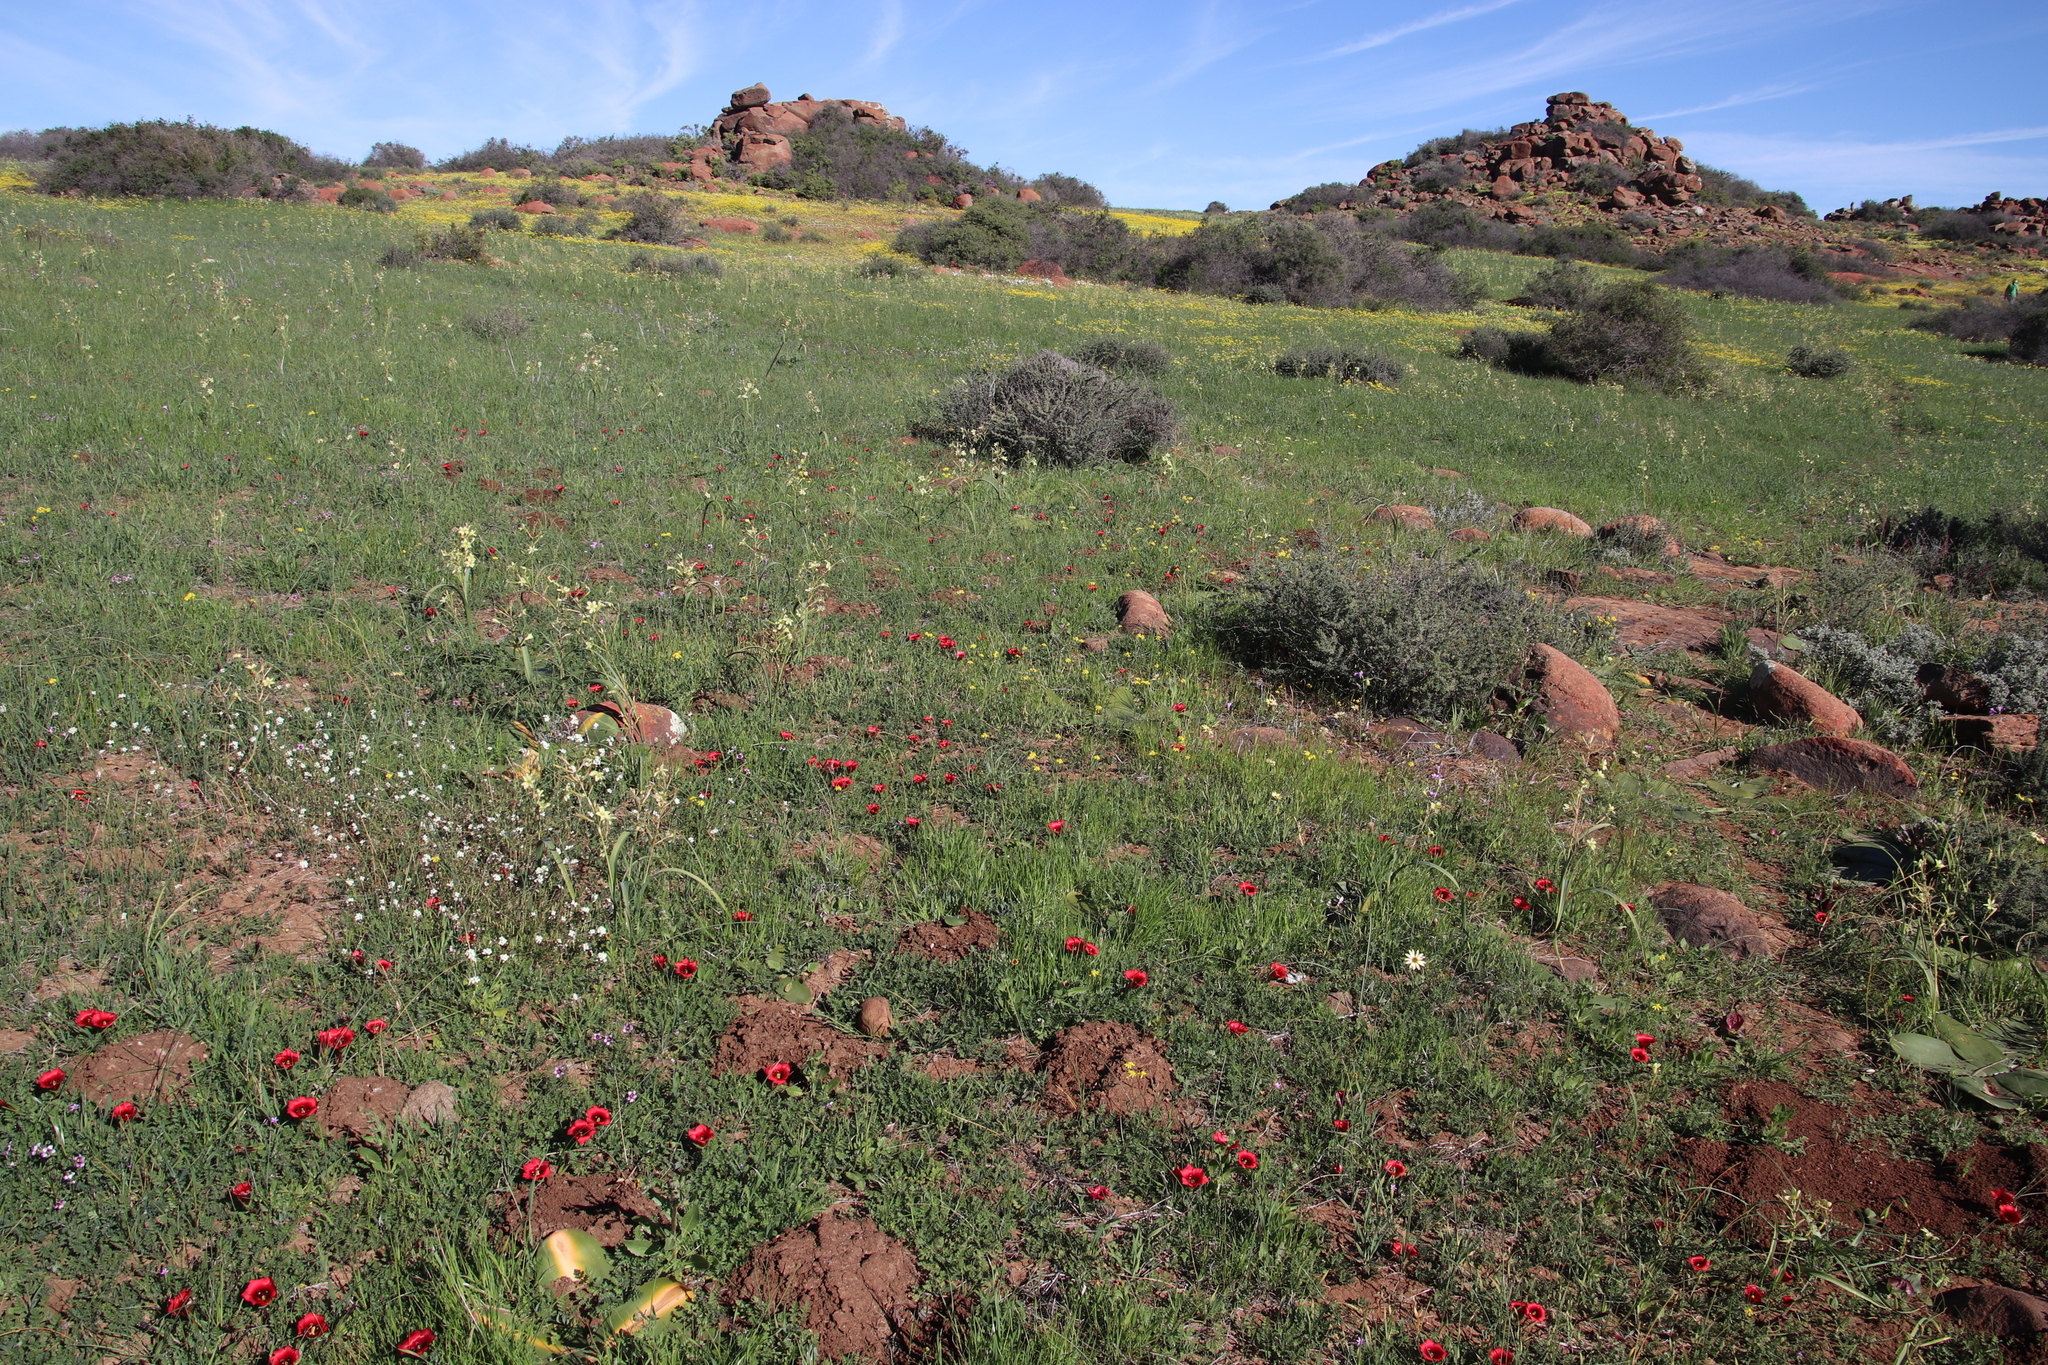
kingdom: Plantae
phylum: Tracheophyta
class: Liliopsida
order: Asparagales
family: Iridaceae
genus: Romulea
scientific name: Romulea monadelpha
